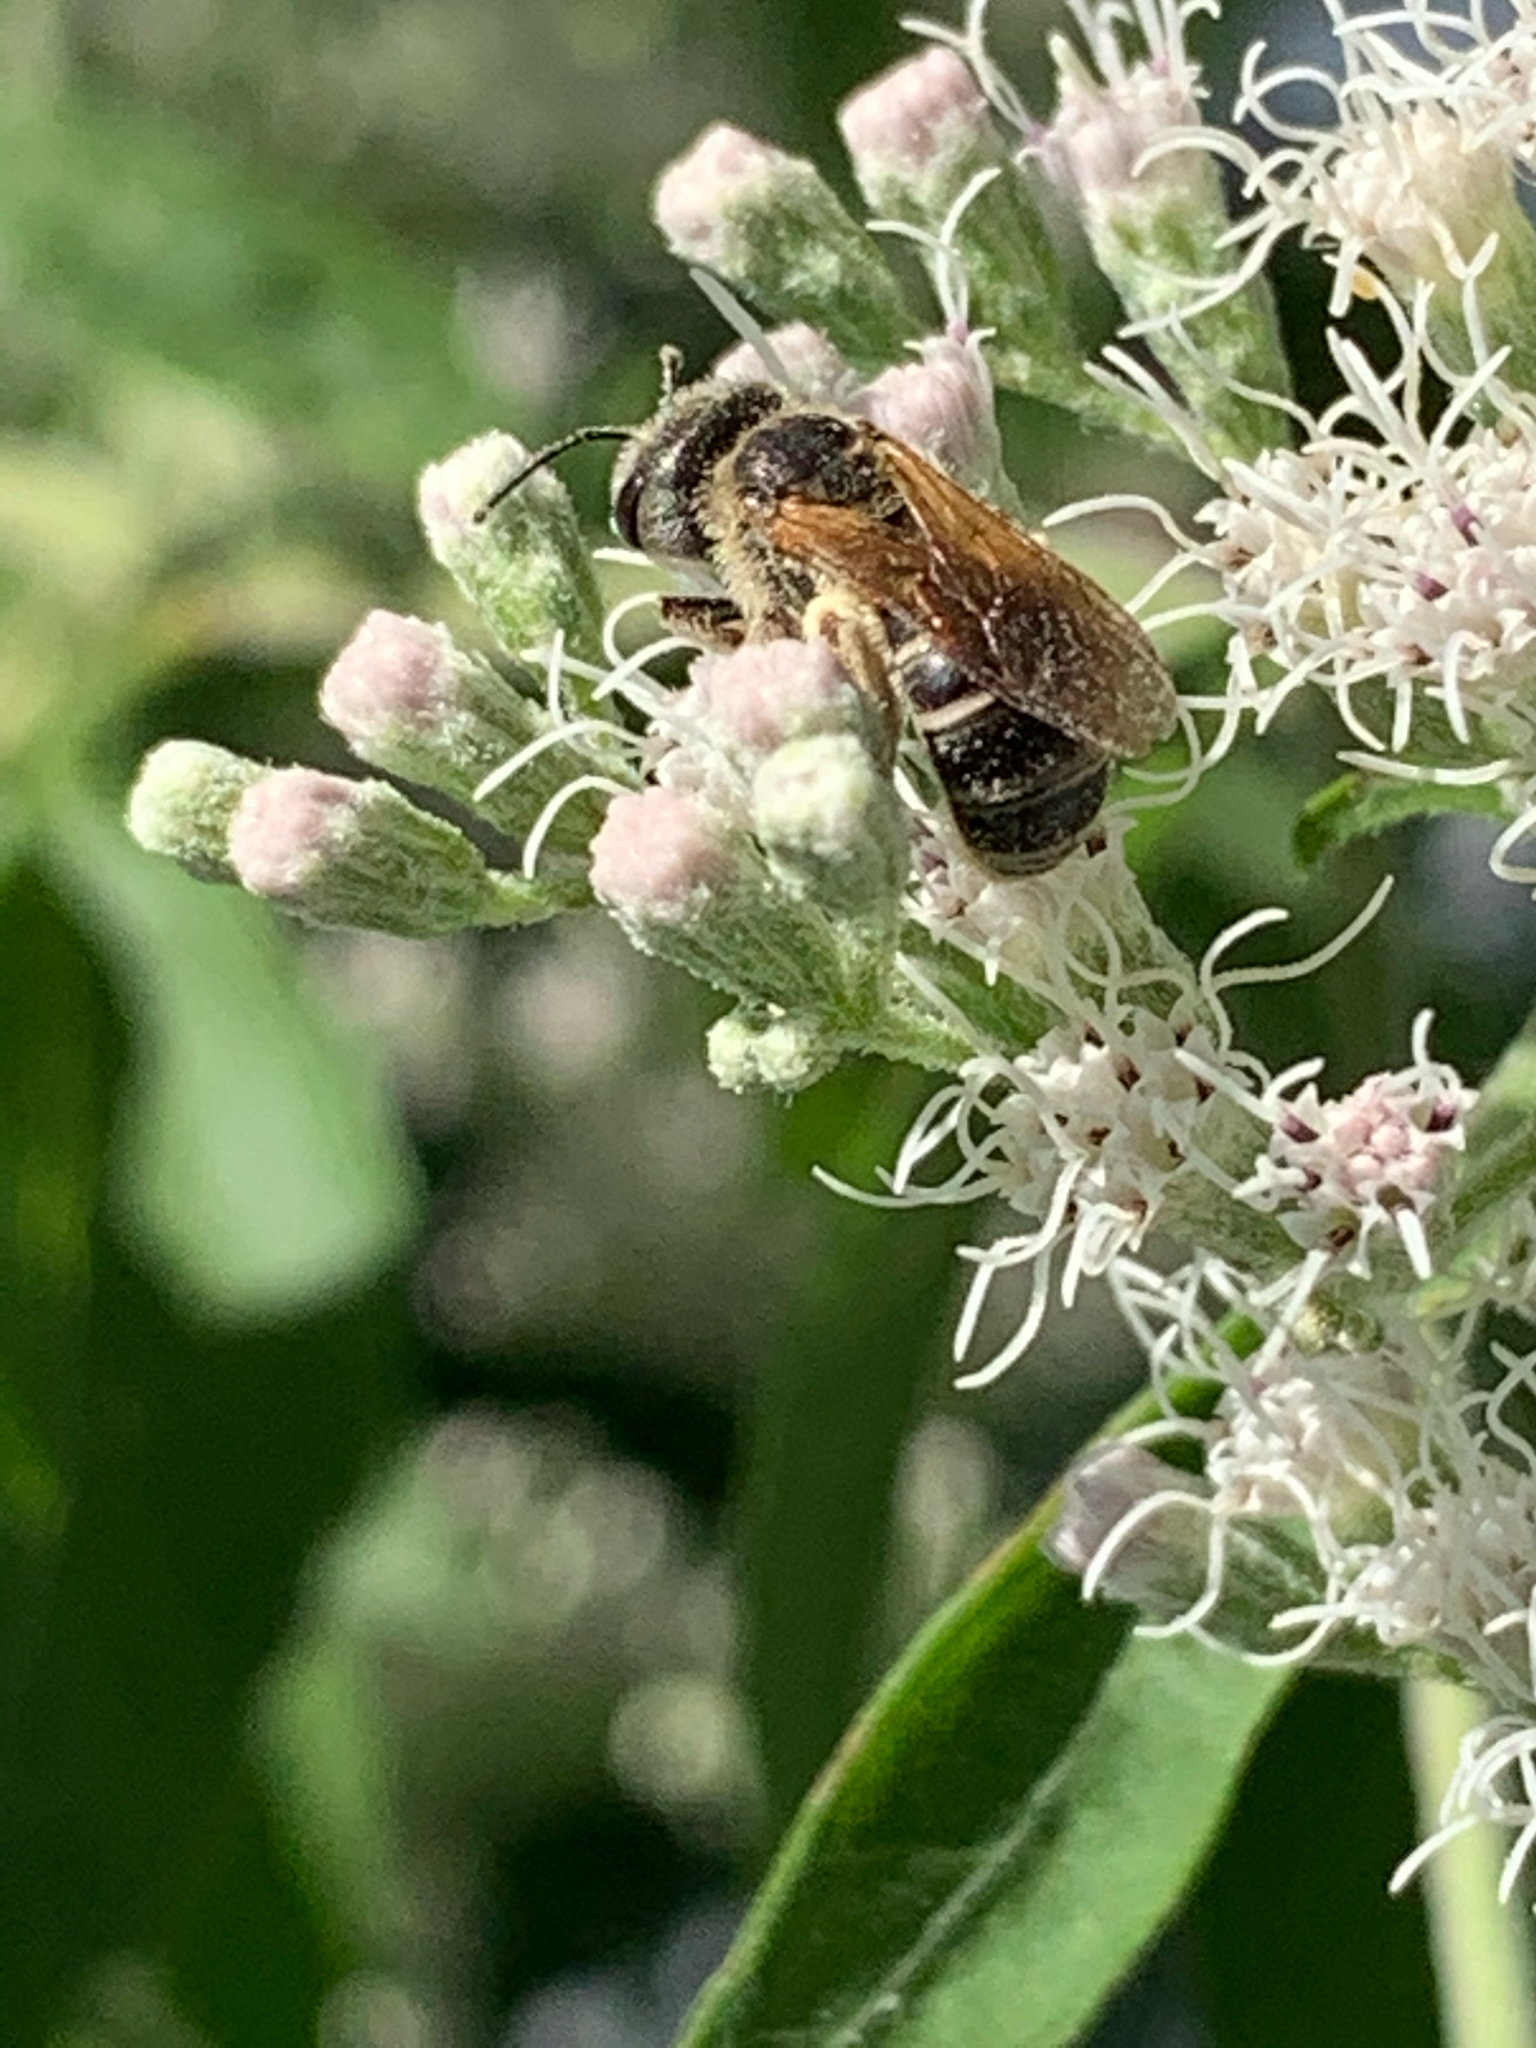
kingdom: Animalia
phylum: Arthropoda
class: Insecta
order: Hymenoptera
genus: Odontalictus
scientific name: Odontalictus
